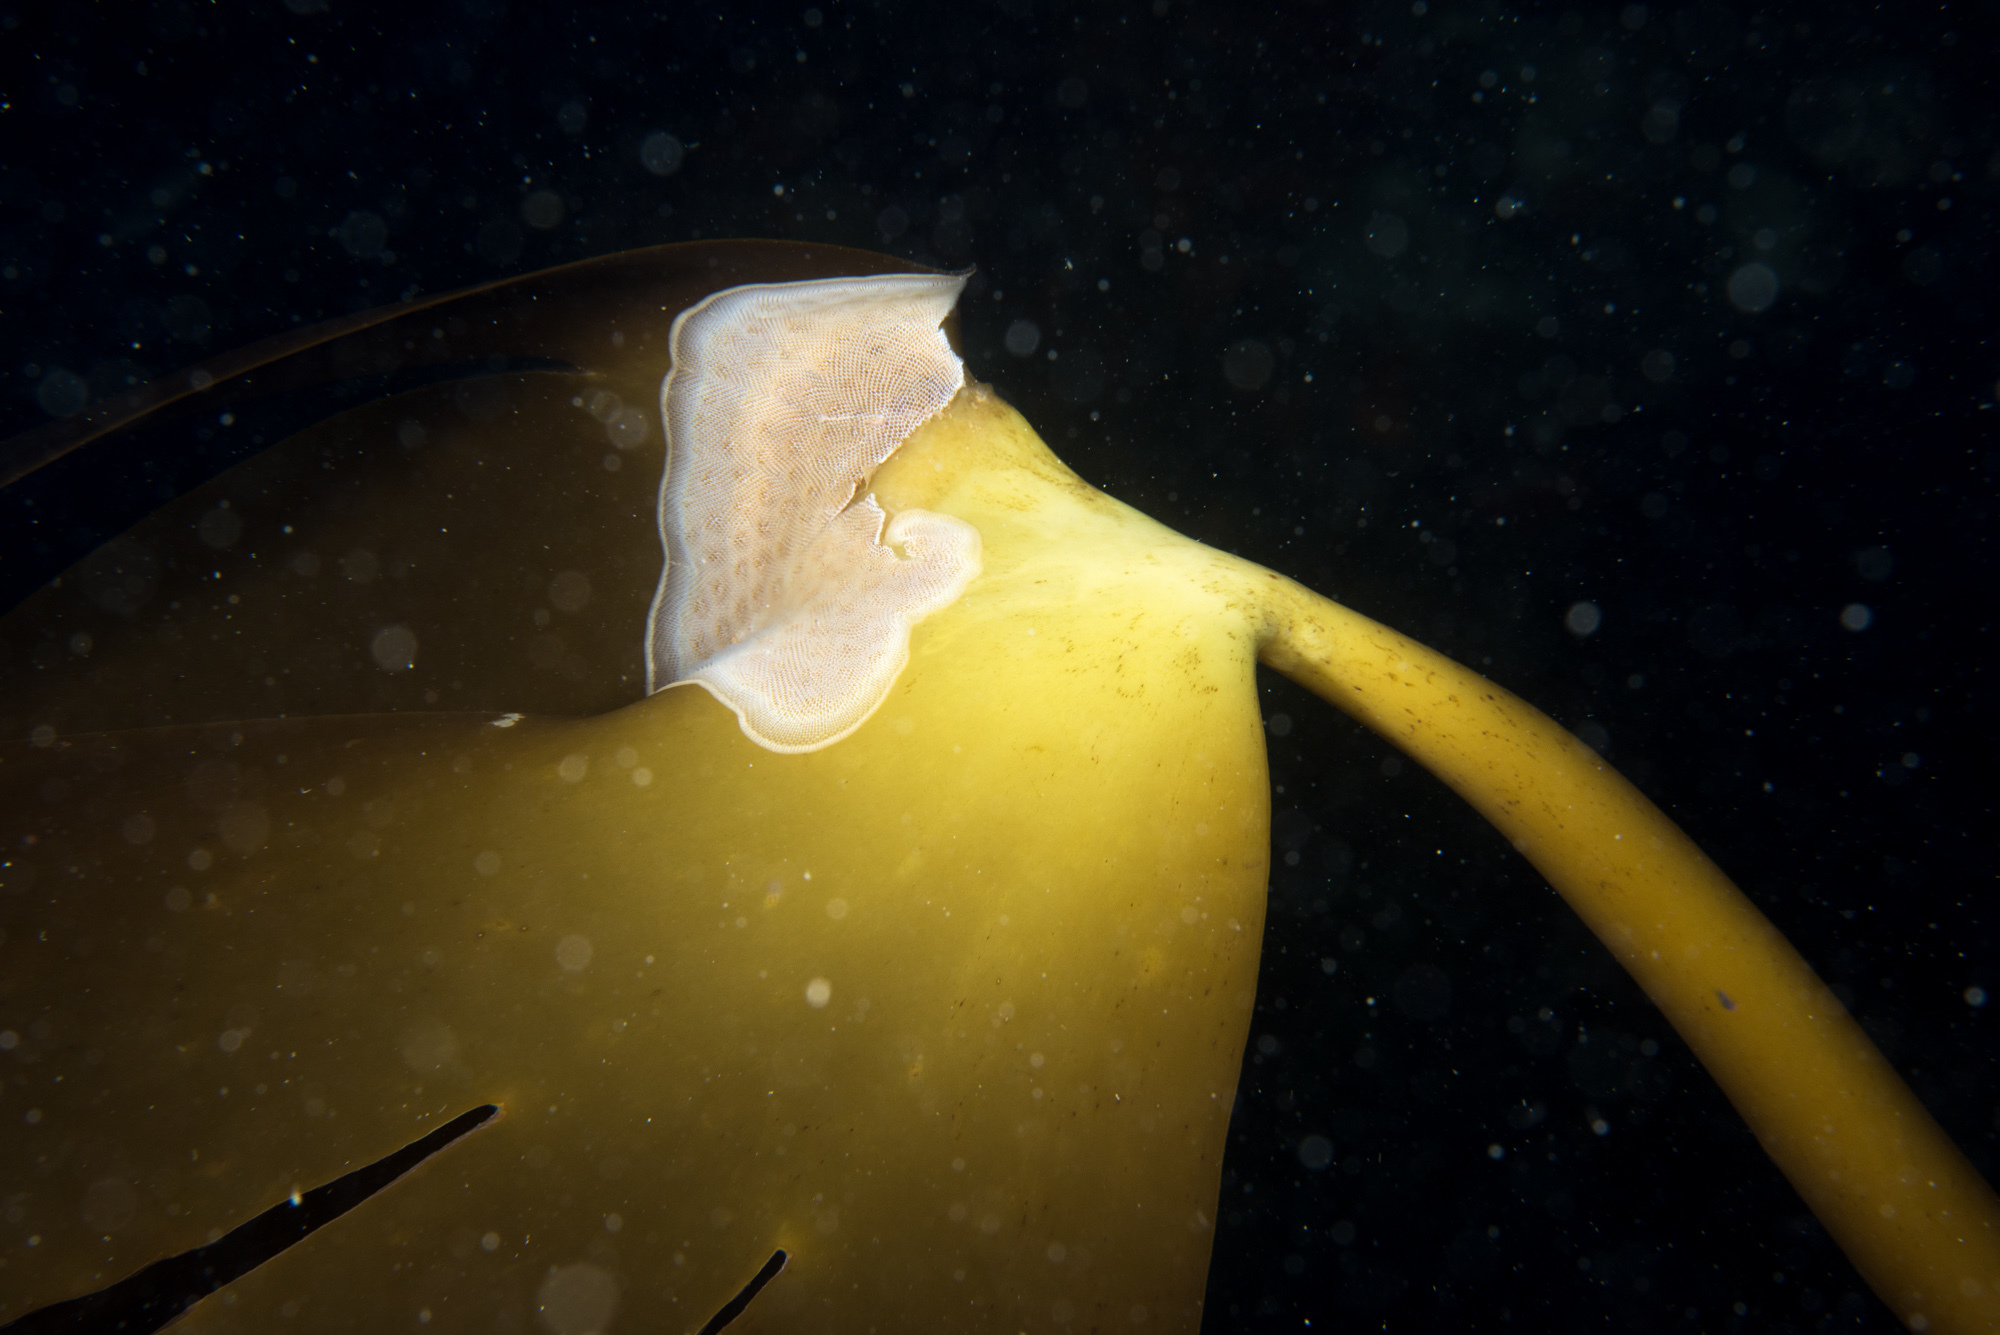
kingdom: Chromista
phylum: Ochrophyta
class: Phaeophyceae
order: Laminariales
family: Laminariaceae
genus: Laminaria
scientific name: Laminaria ochroleuca
